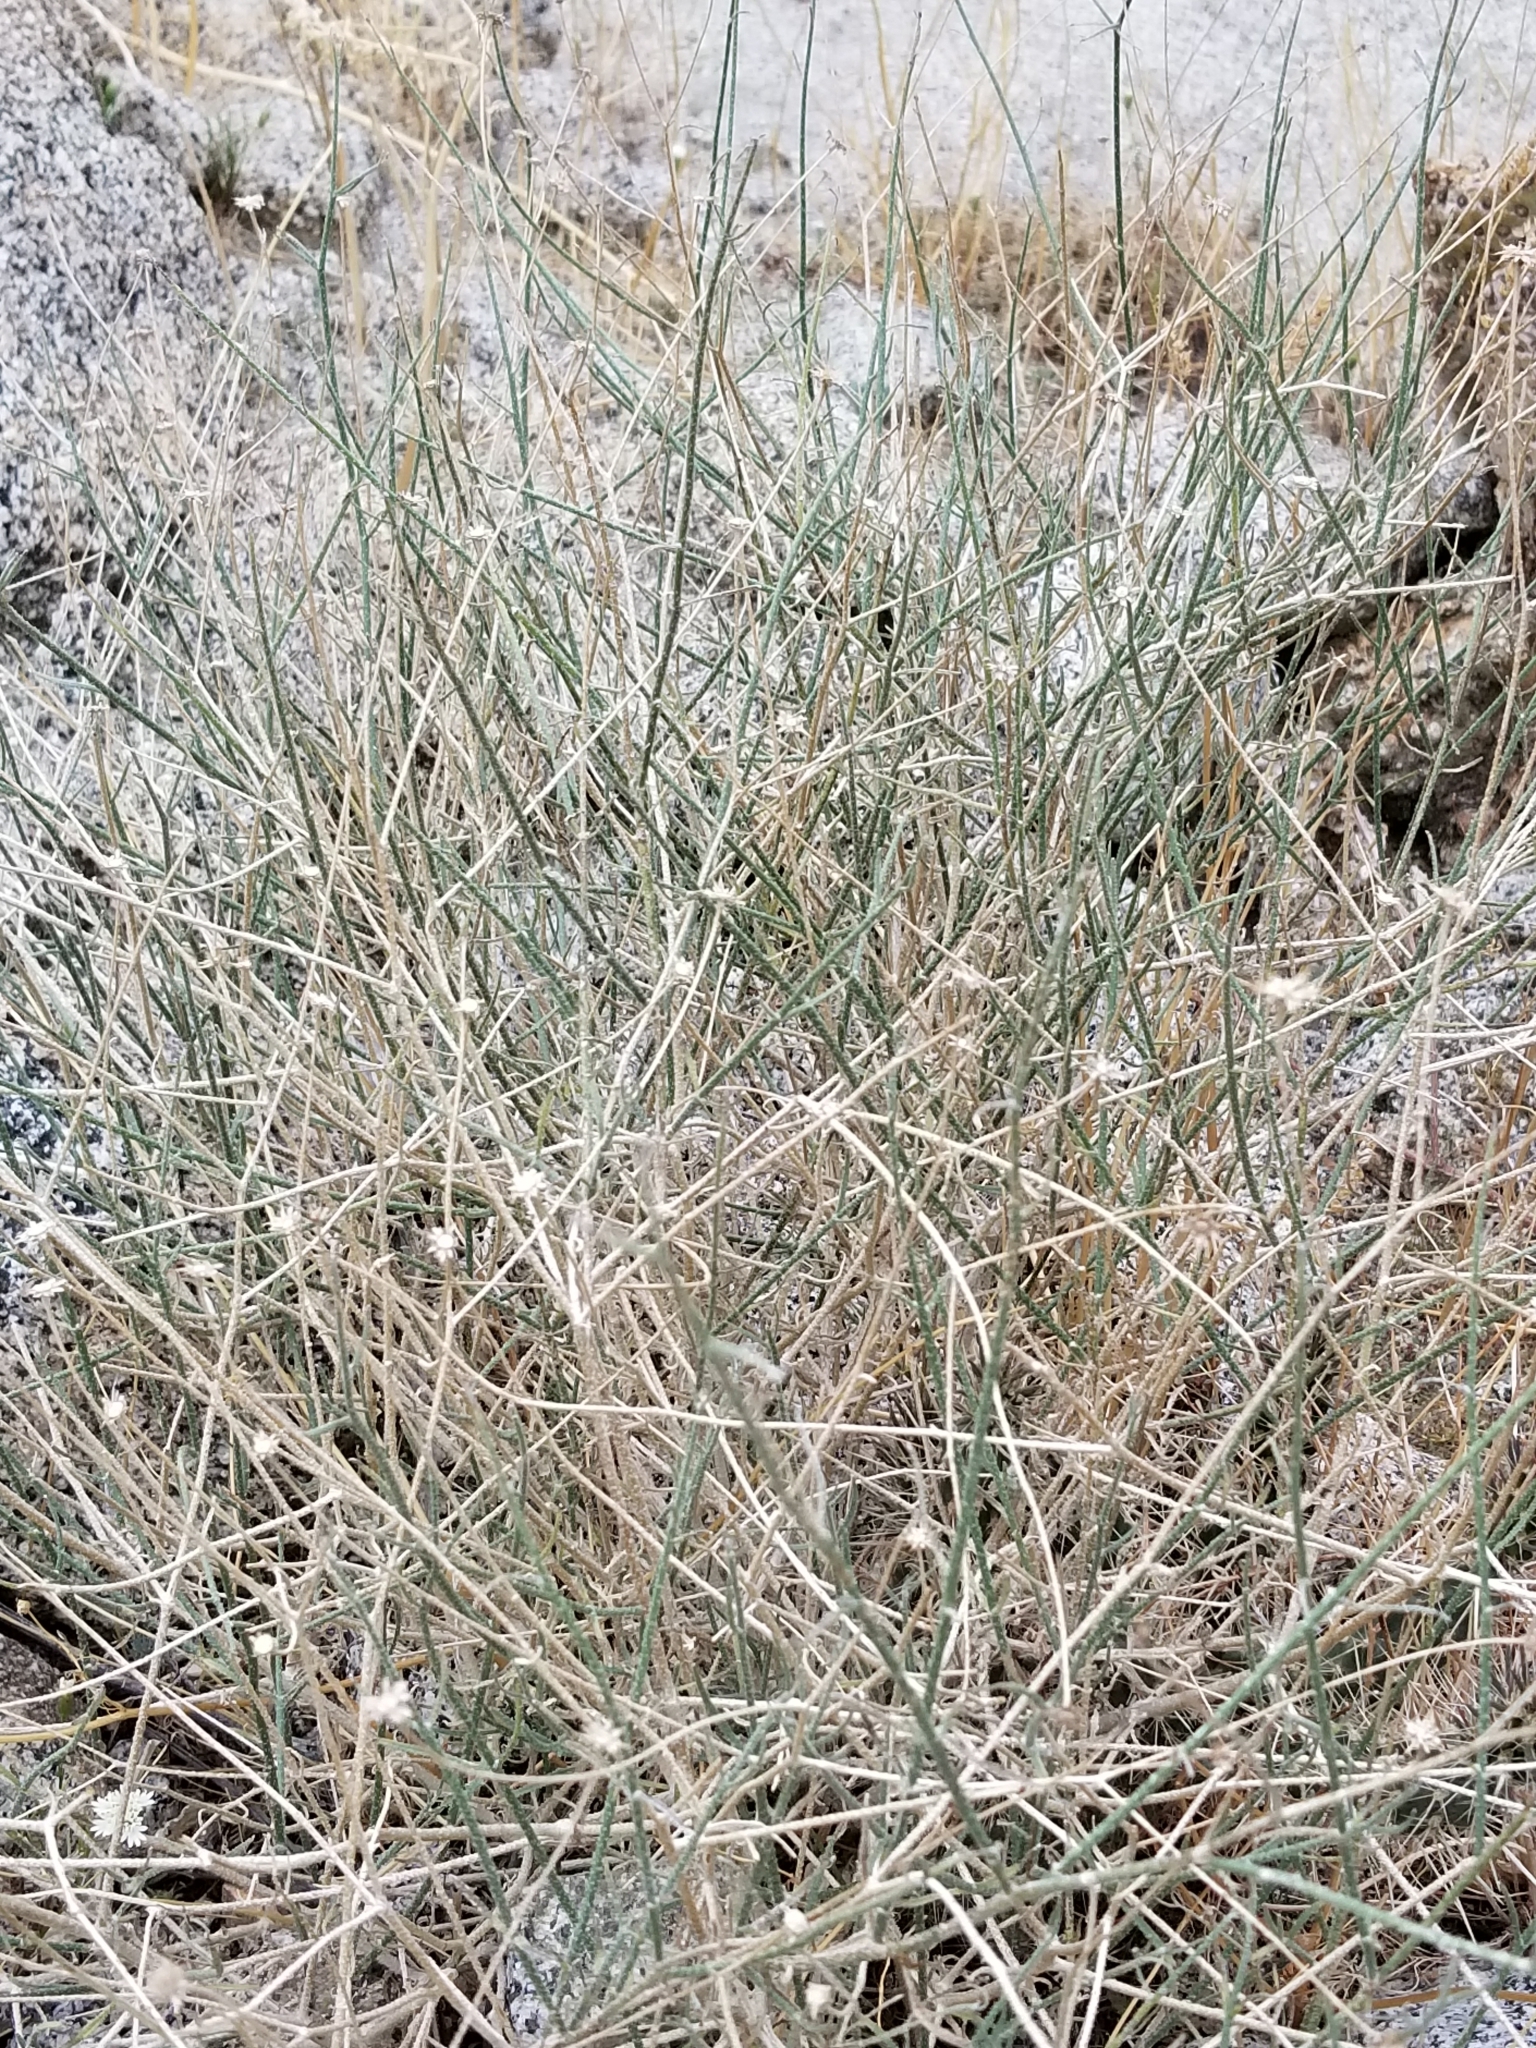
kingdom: Plantae
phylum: Tracheophyta
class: Magnoliopsida
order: Asterales
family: Asteraceae
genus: Bebbia
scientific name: Bebbia juncea
